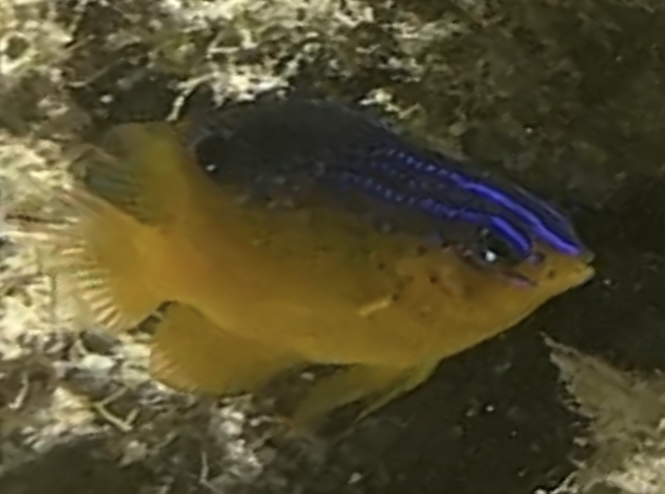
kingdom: Animalia
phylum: Chordata
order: Perciformes
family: Pomacentridae
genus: Stegastes
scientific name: Stegastes leucostictus
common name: Beaugregory
